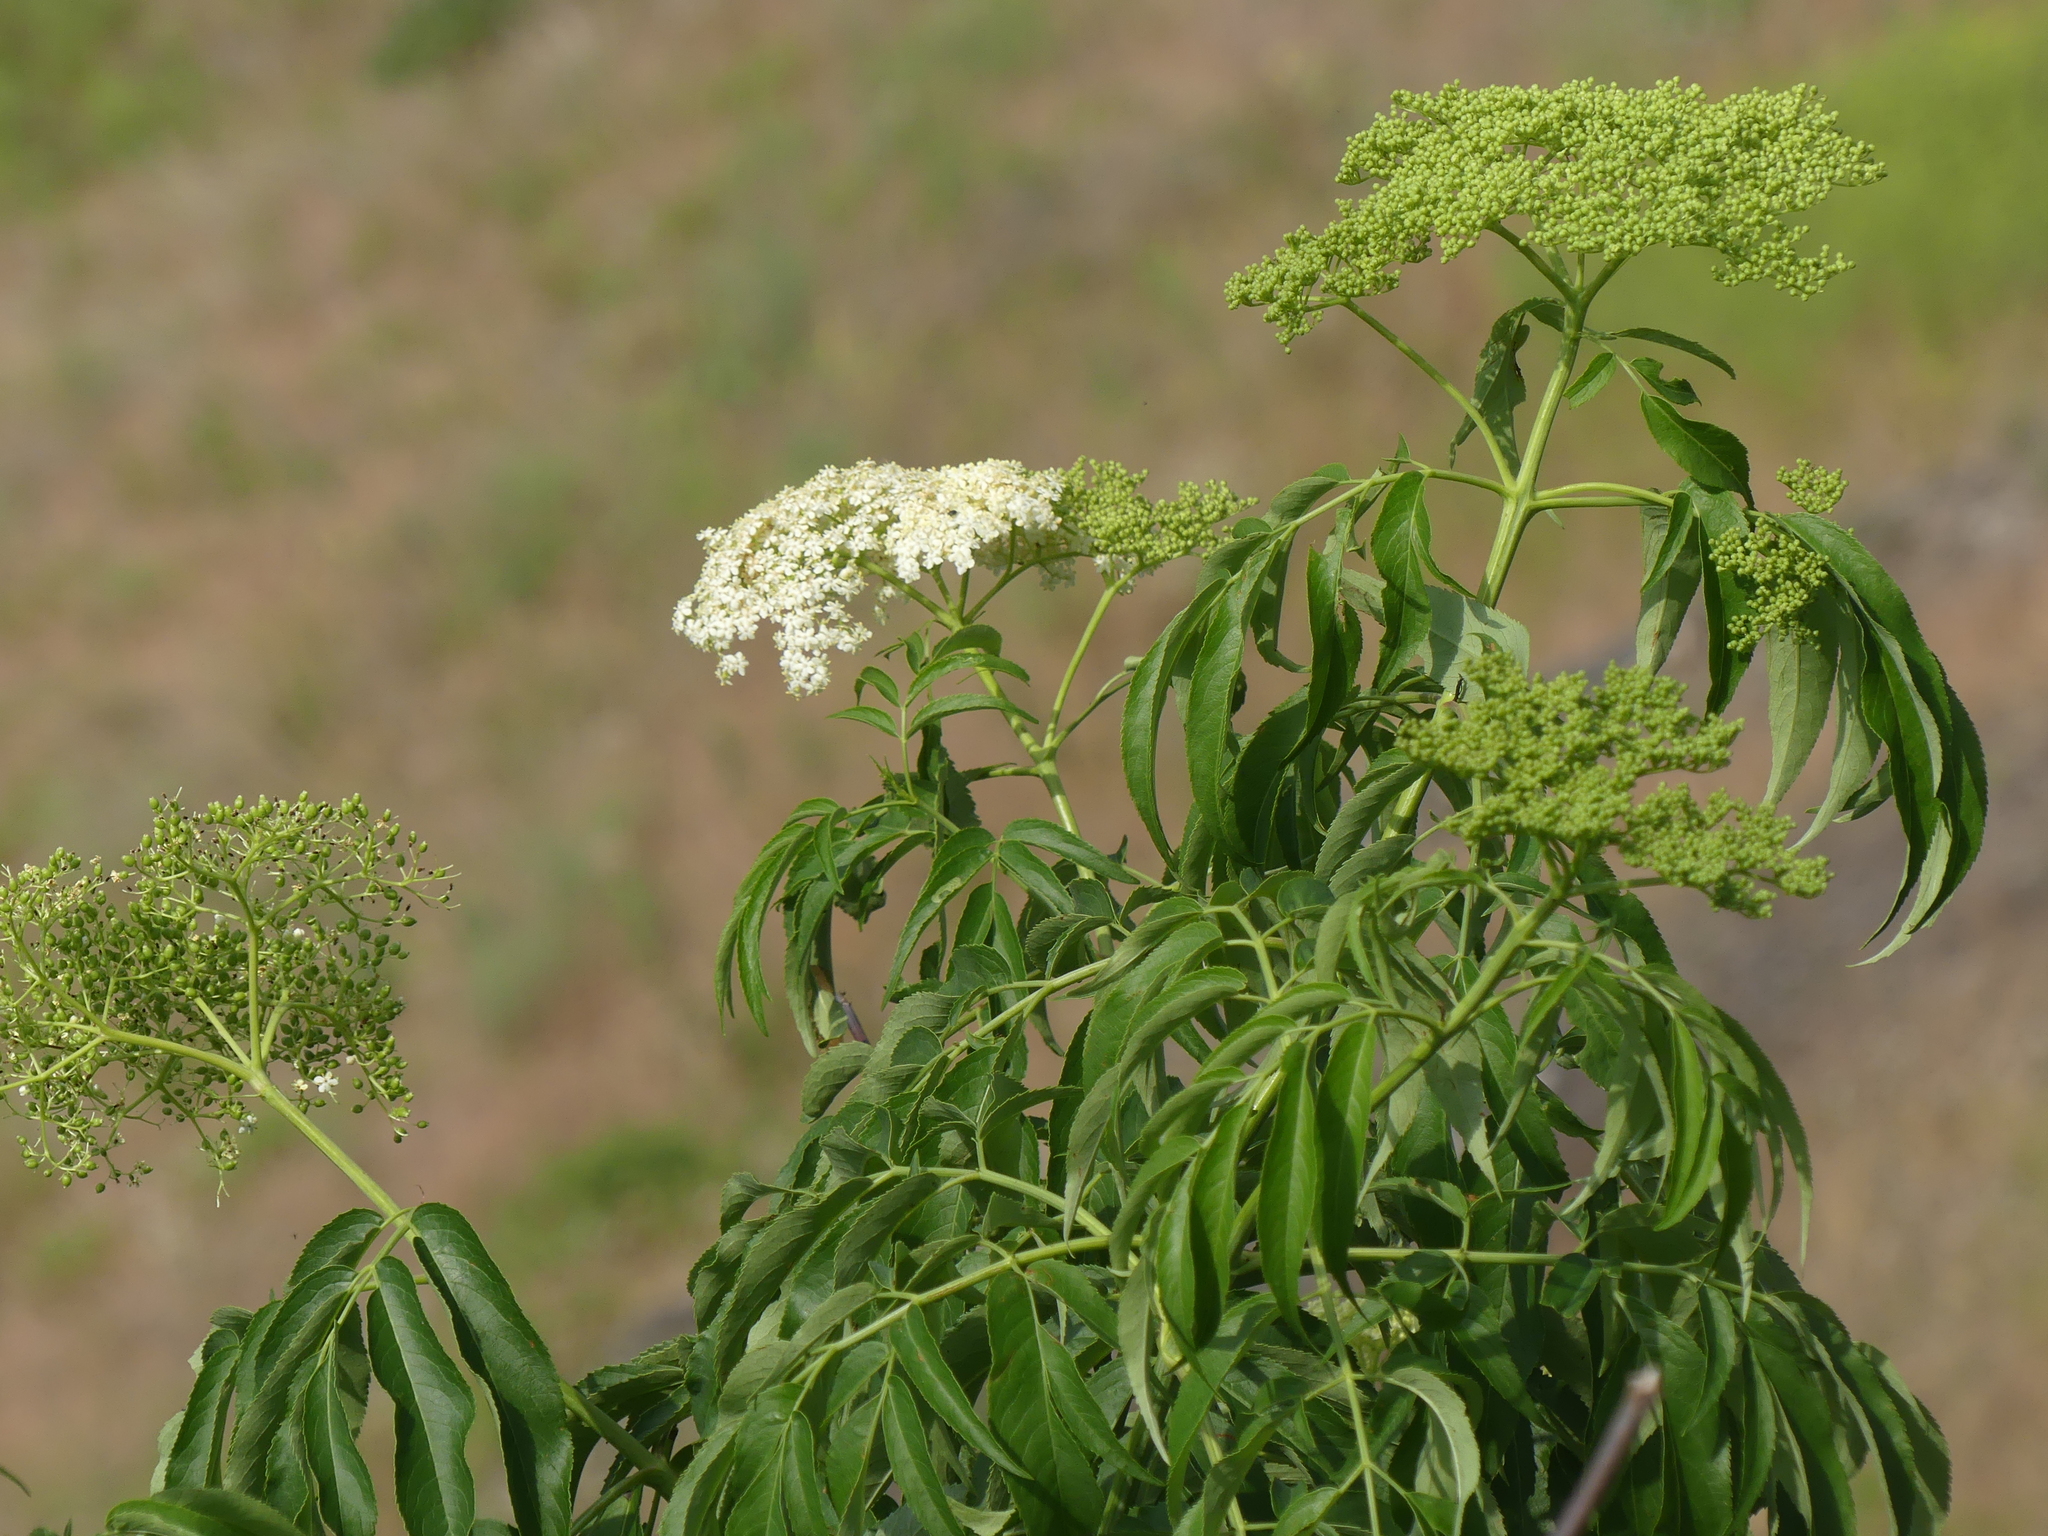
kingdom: Plantae
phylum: Tracheophyta
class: Magnoliopsida
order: Dipsacales
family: Viburnaceae
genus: Sambucus
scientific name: Sambucus cerulea
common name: Blue elder
